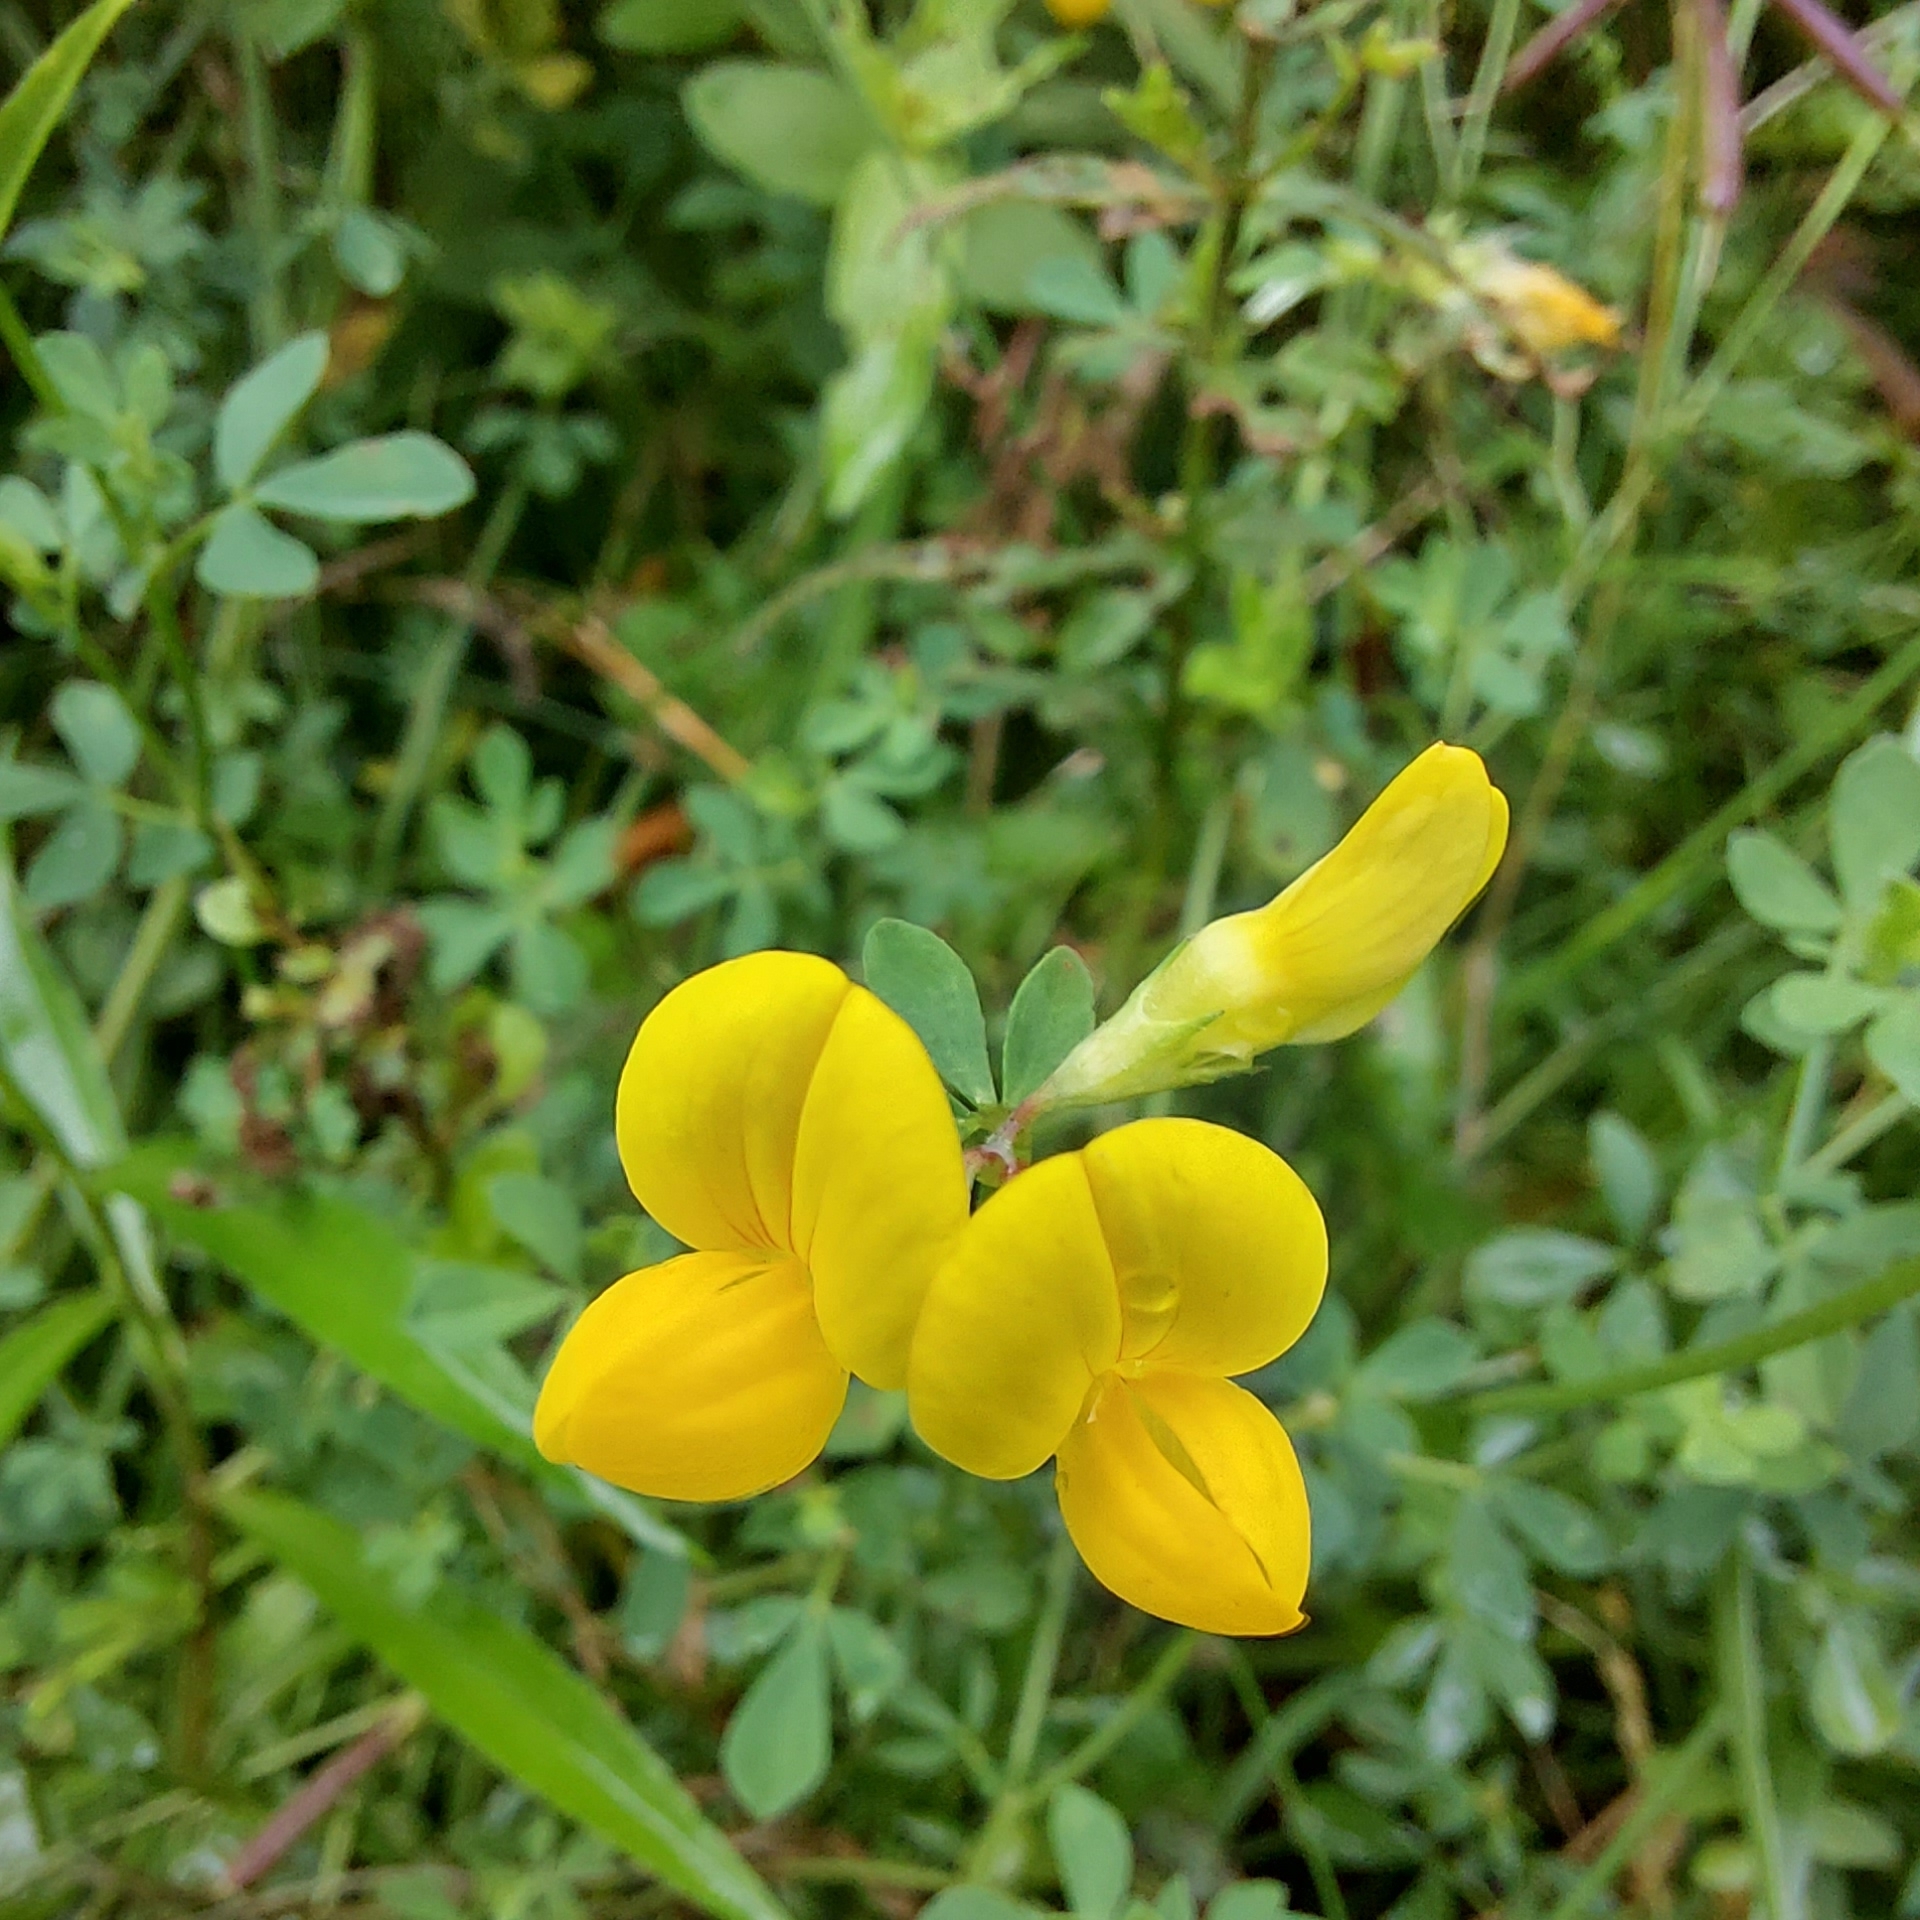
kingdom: Plantae
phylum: Tracheophyta
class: Magnoliopsida
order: Fabales
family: Fabaceae
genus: Lotus
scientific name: Lotus corniculatus
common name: Common bird's-foot-trefoil
